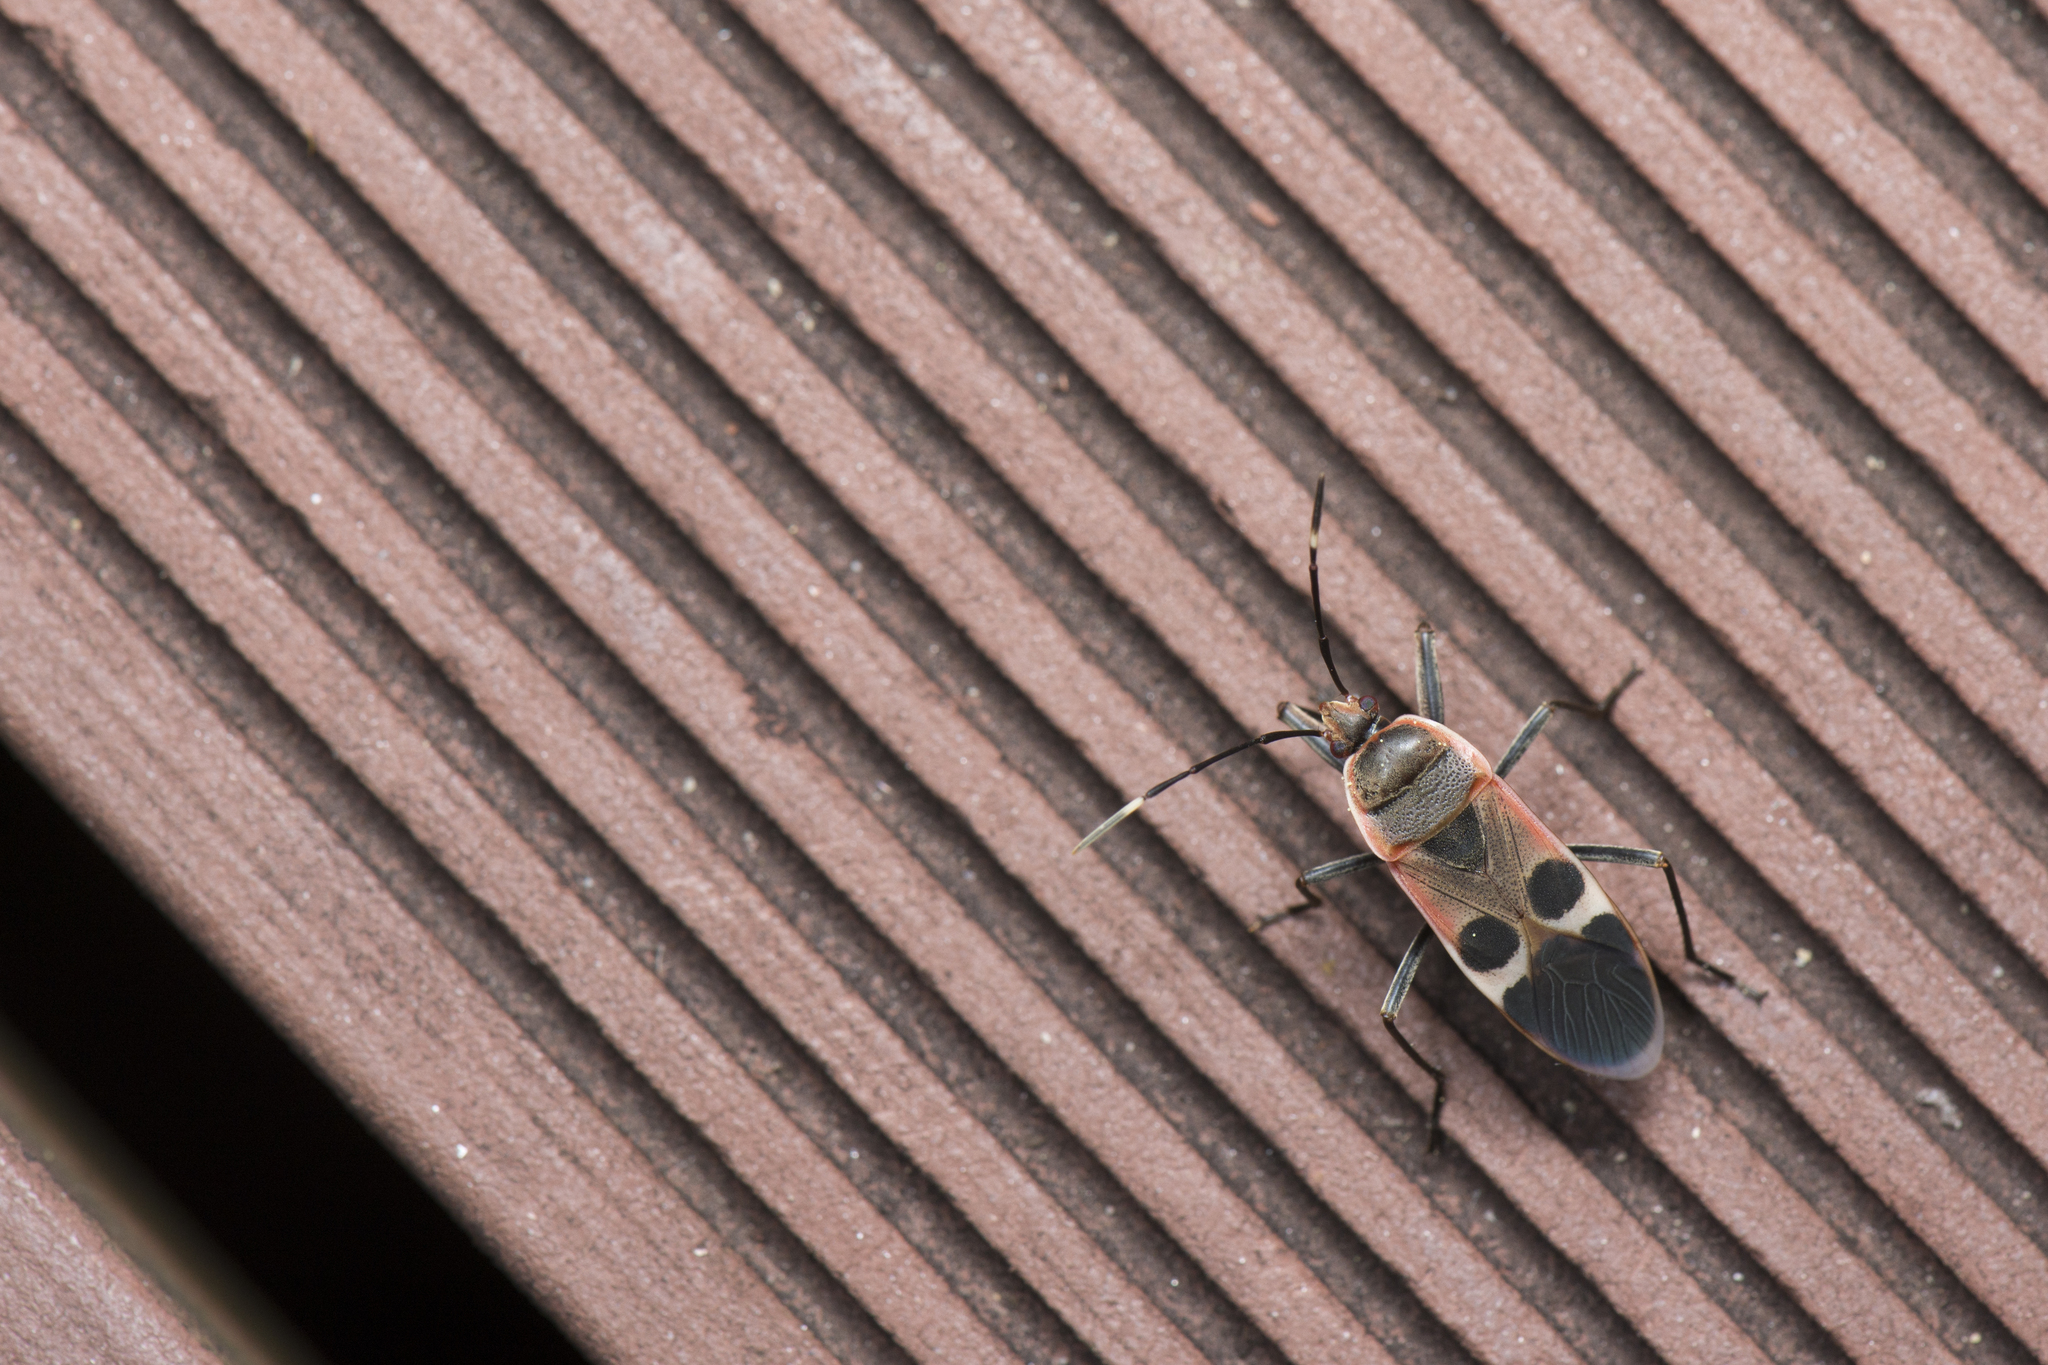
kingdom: Animalia
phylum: Arthropoda
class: Insecta
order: Hemiptera
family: Largidae
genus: Physopelta
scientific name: Physopelta gutta
